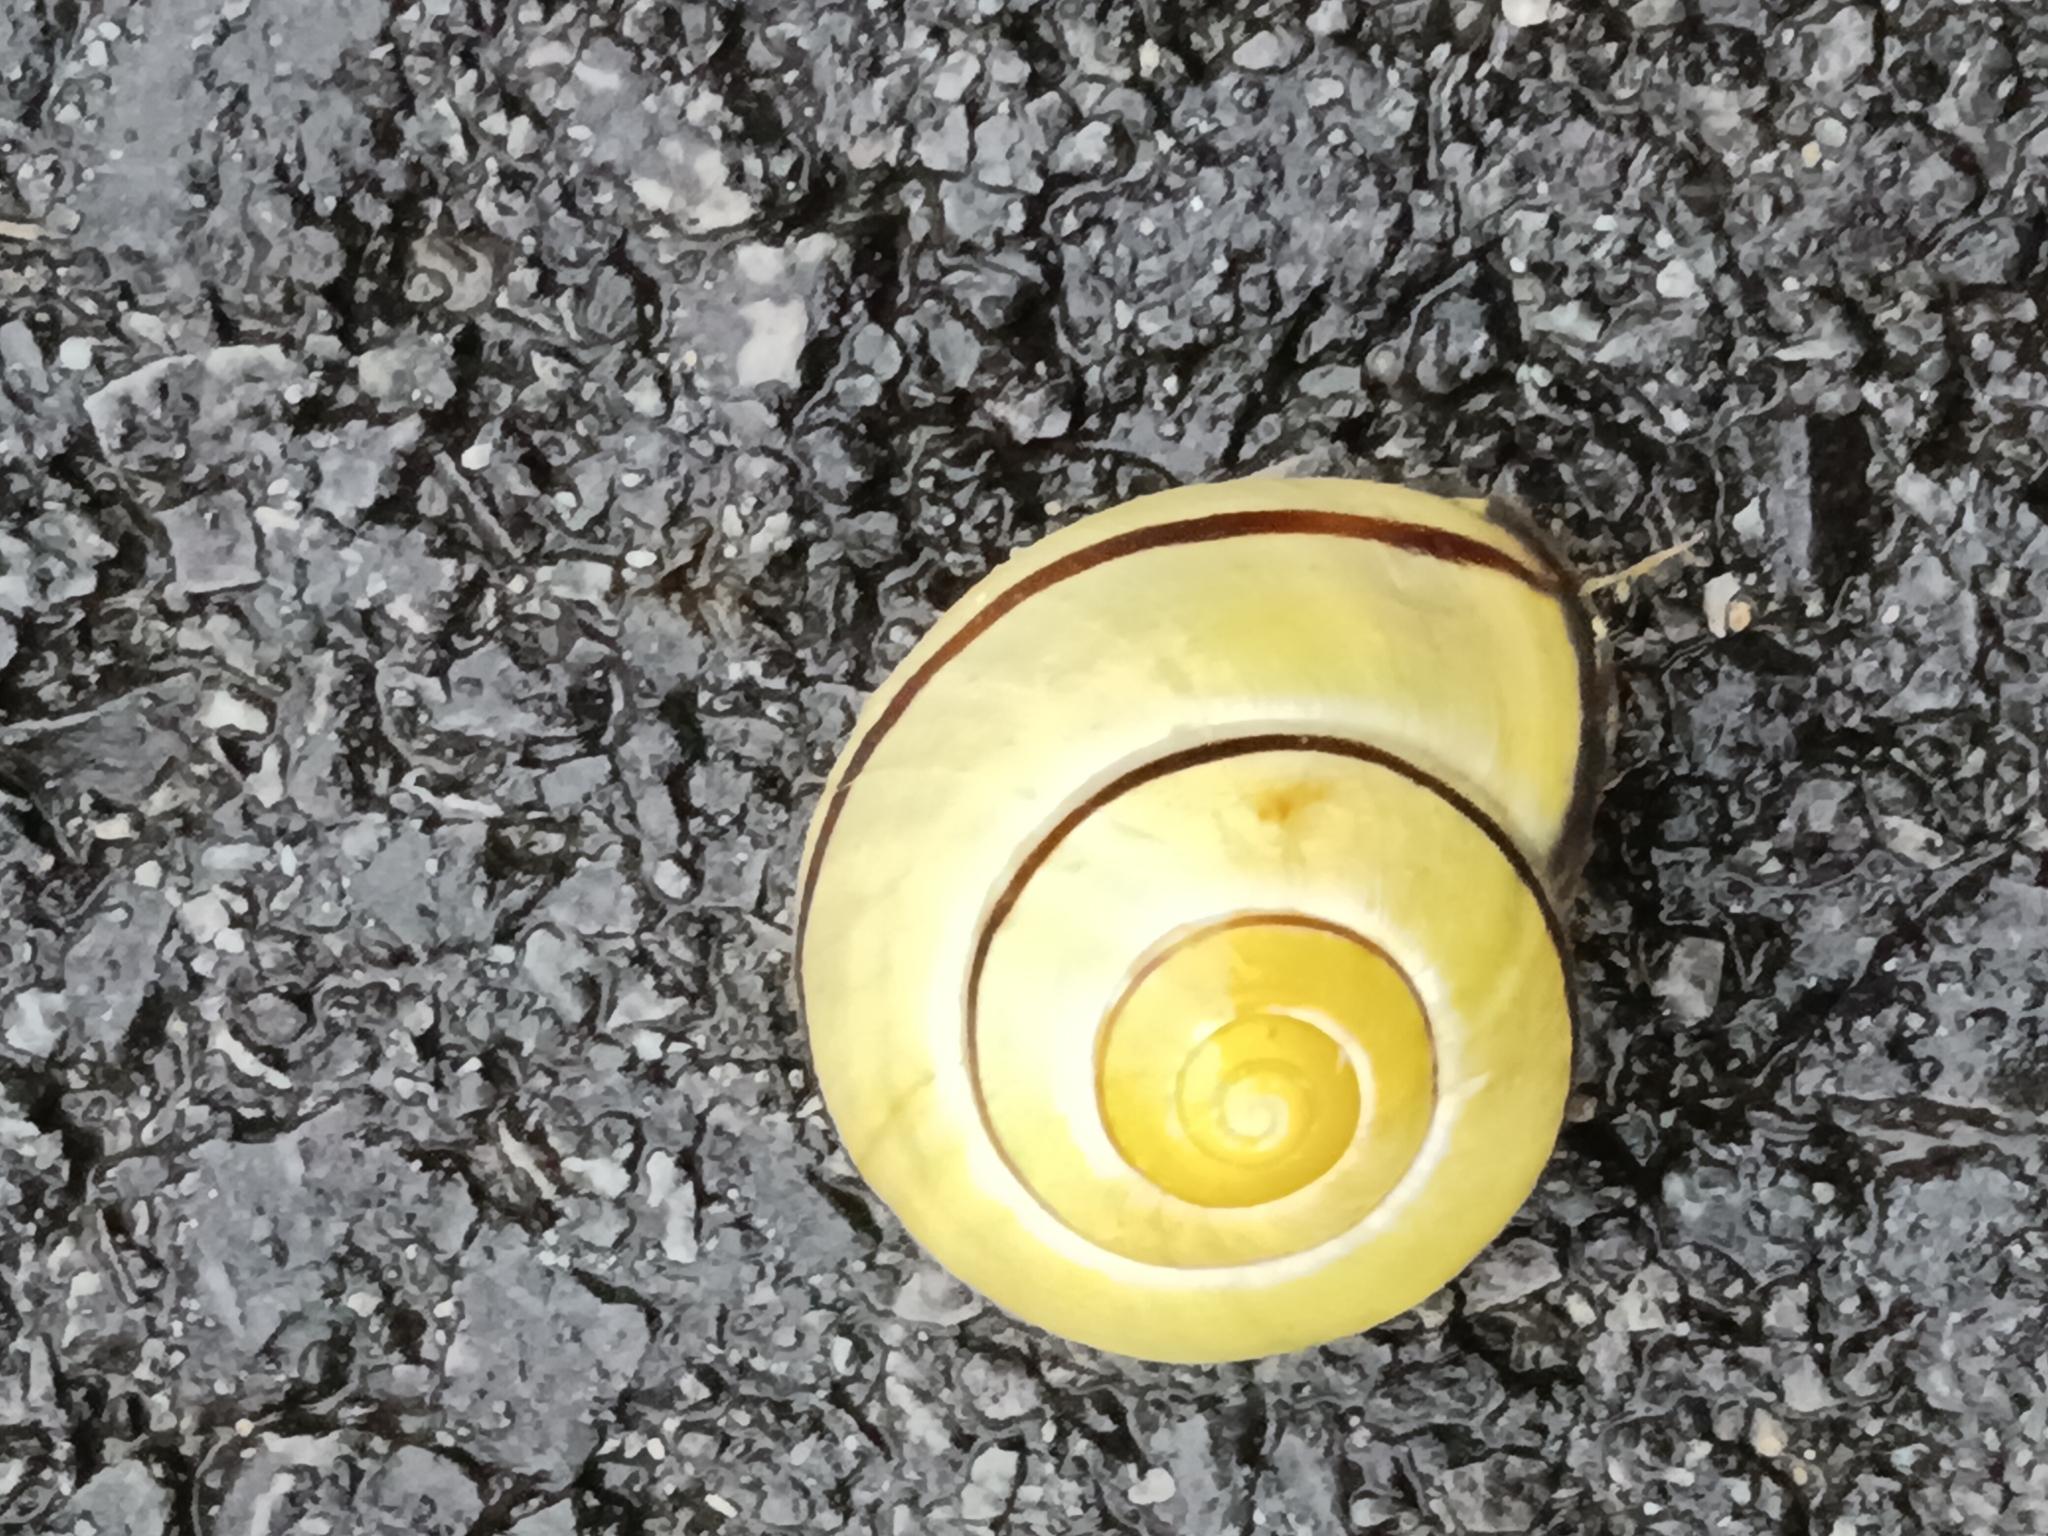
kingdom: Animalia
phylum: Mollusca
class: Gastropoda
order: Stylommatophora
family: Helicidae
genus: Cepaea
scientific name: Cepaea nemoralis
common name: Grovesnail
